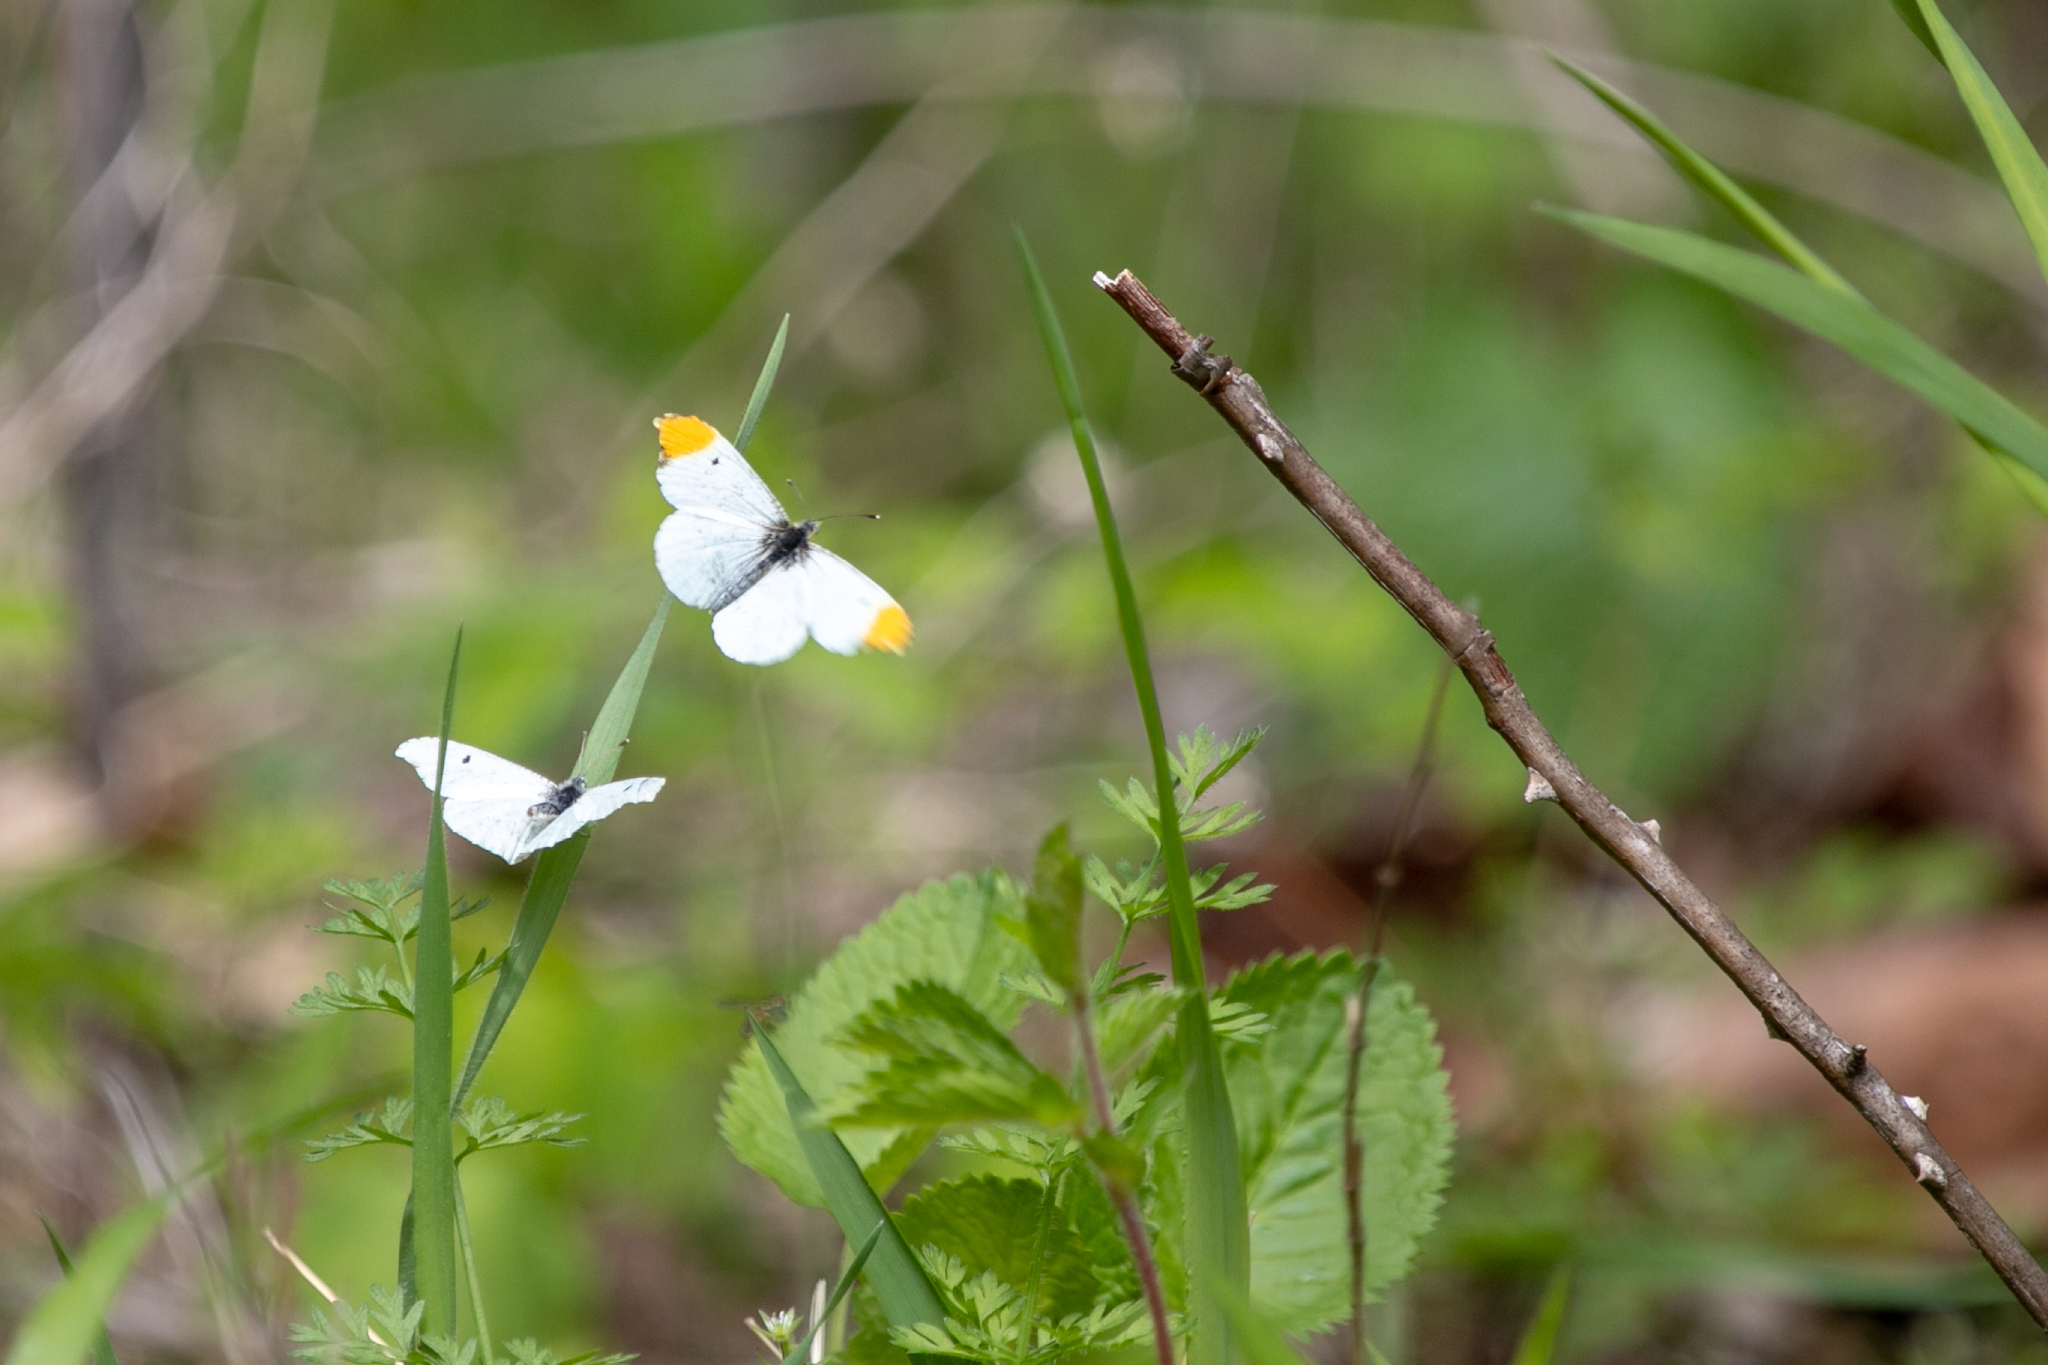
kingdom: Animalia
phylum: Arthropoda
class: Insecta
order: Lepidoptera
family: Pieridae
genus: Anthocharis
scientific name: Anthocharis midea
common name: Falcate orangetip
